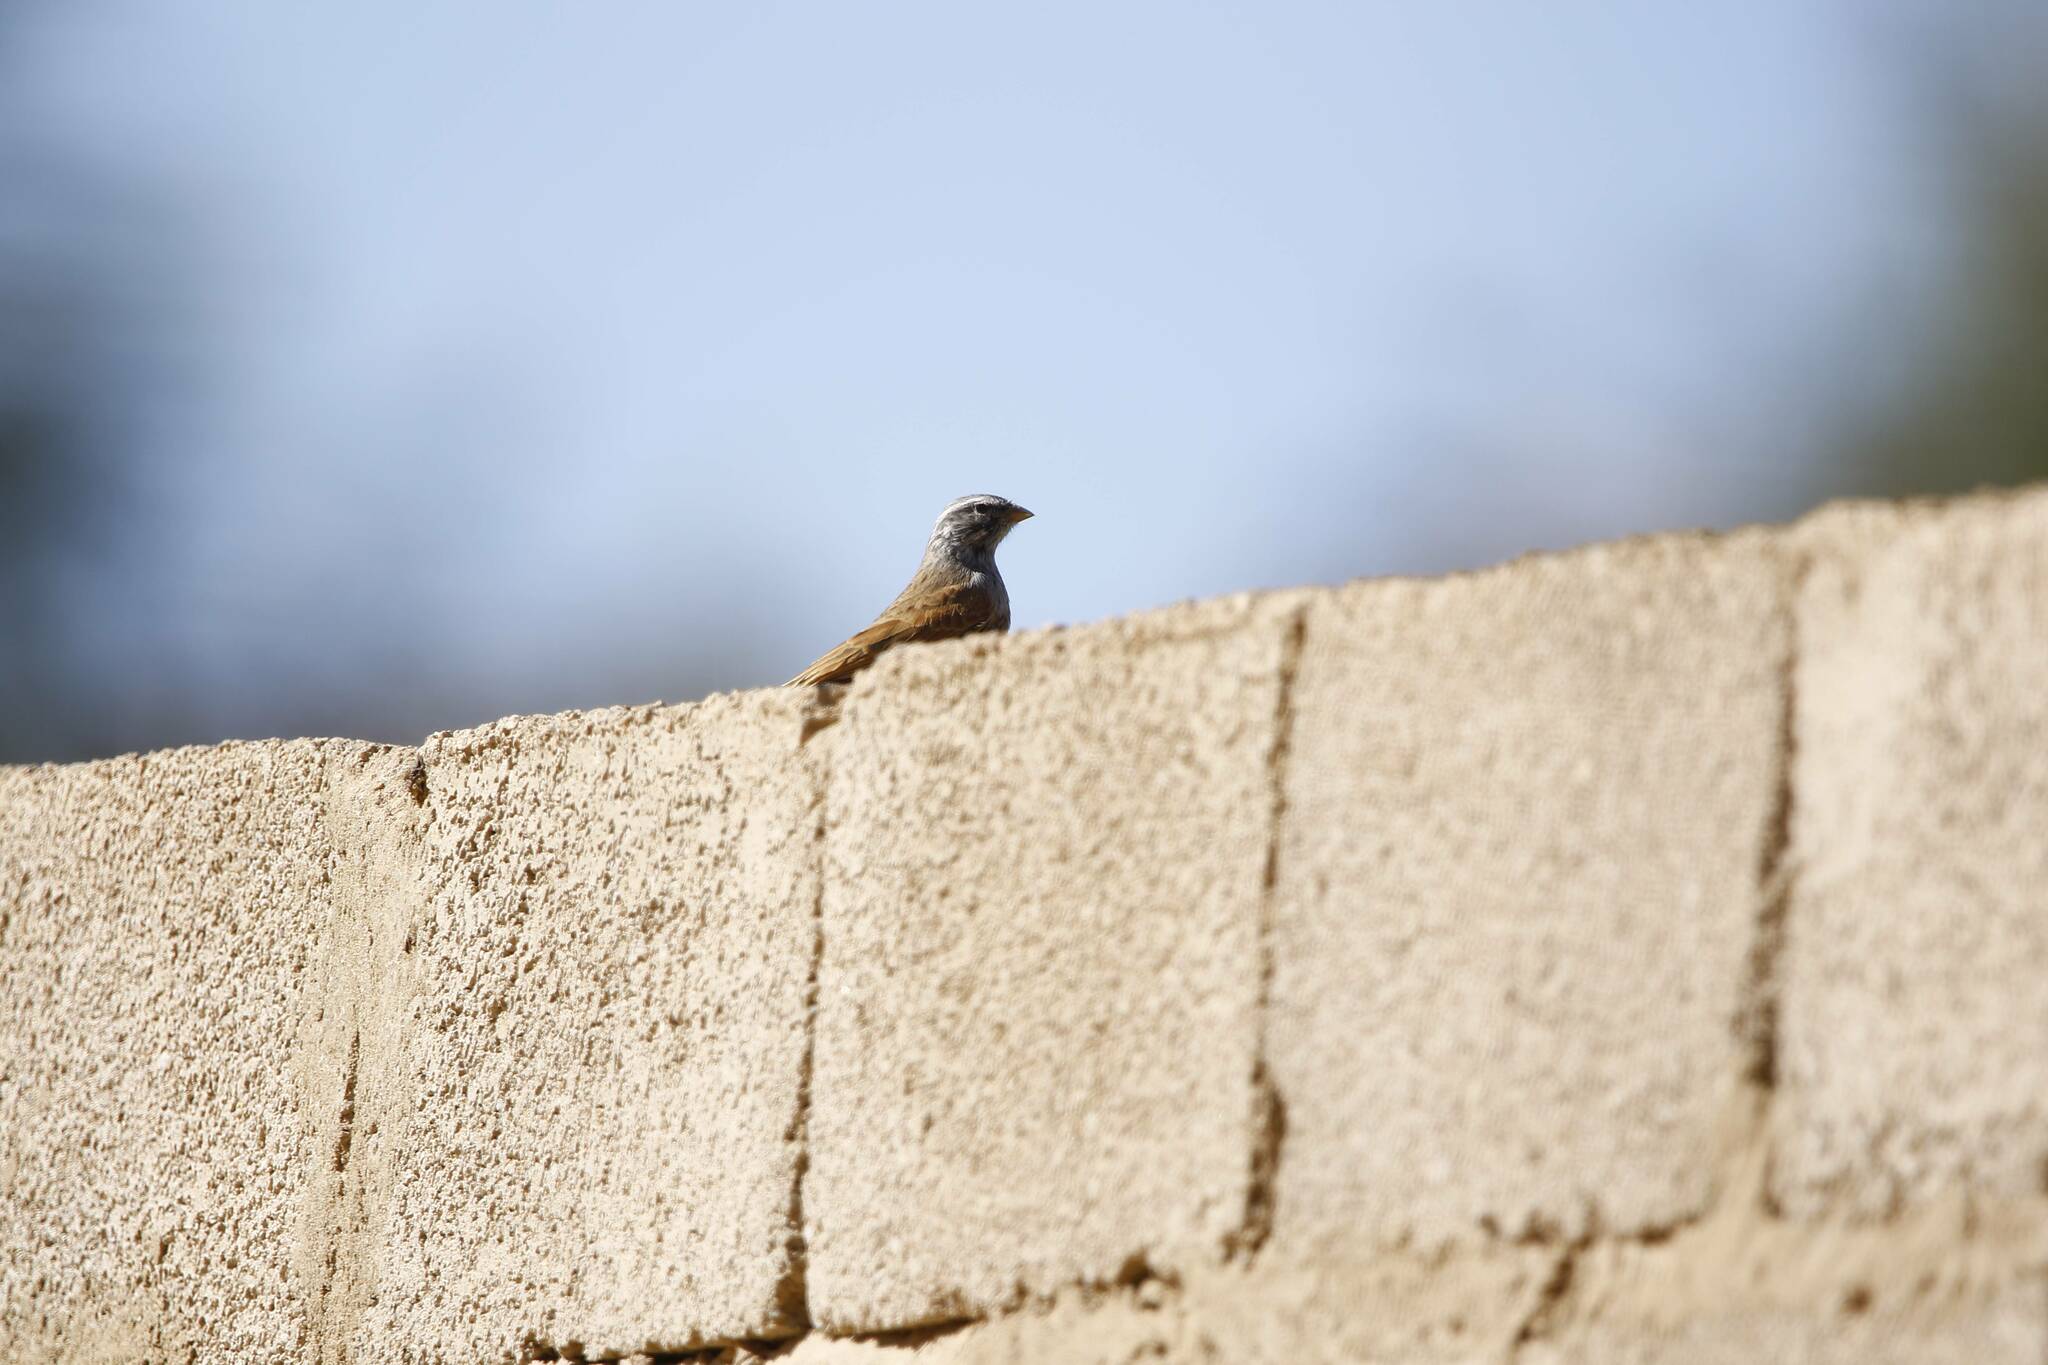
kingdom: Animalia
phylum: Chordata
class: Aves
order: Passeriformes
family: Emberizidae
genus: Emberiza
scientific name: Emberiza sahari
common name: House bunting
